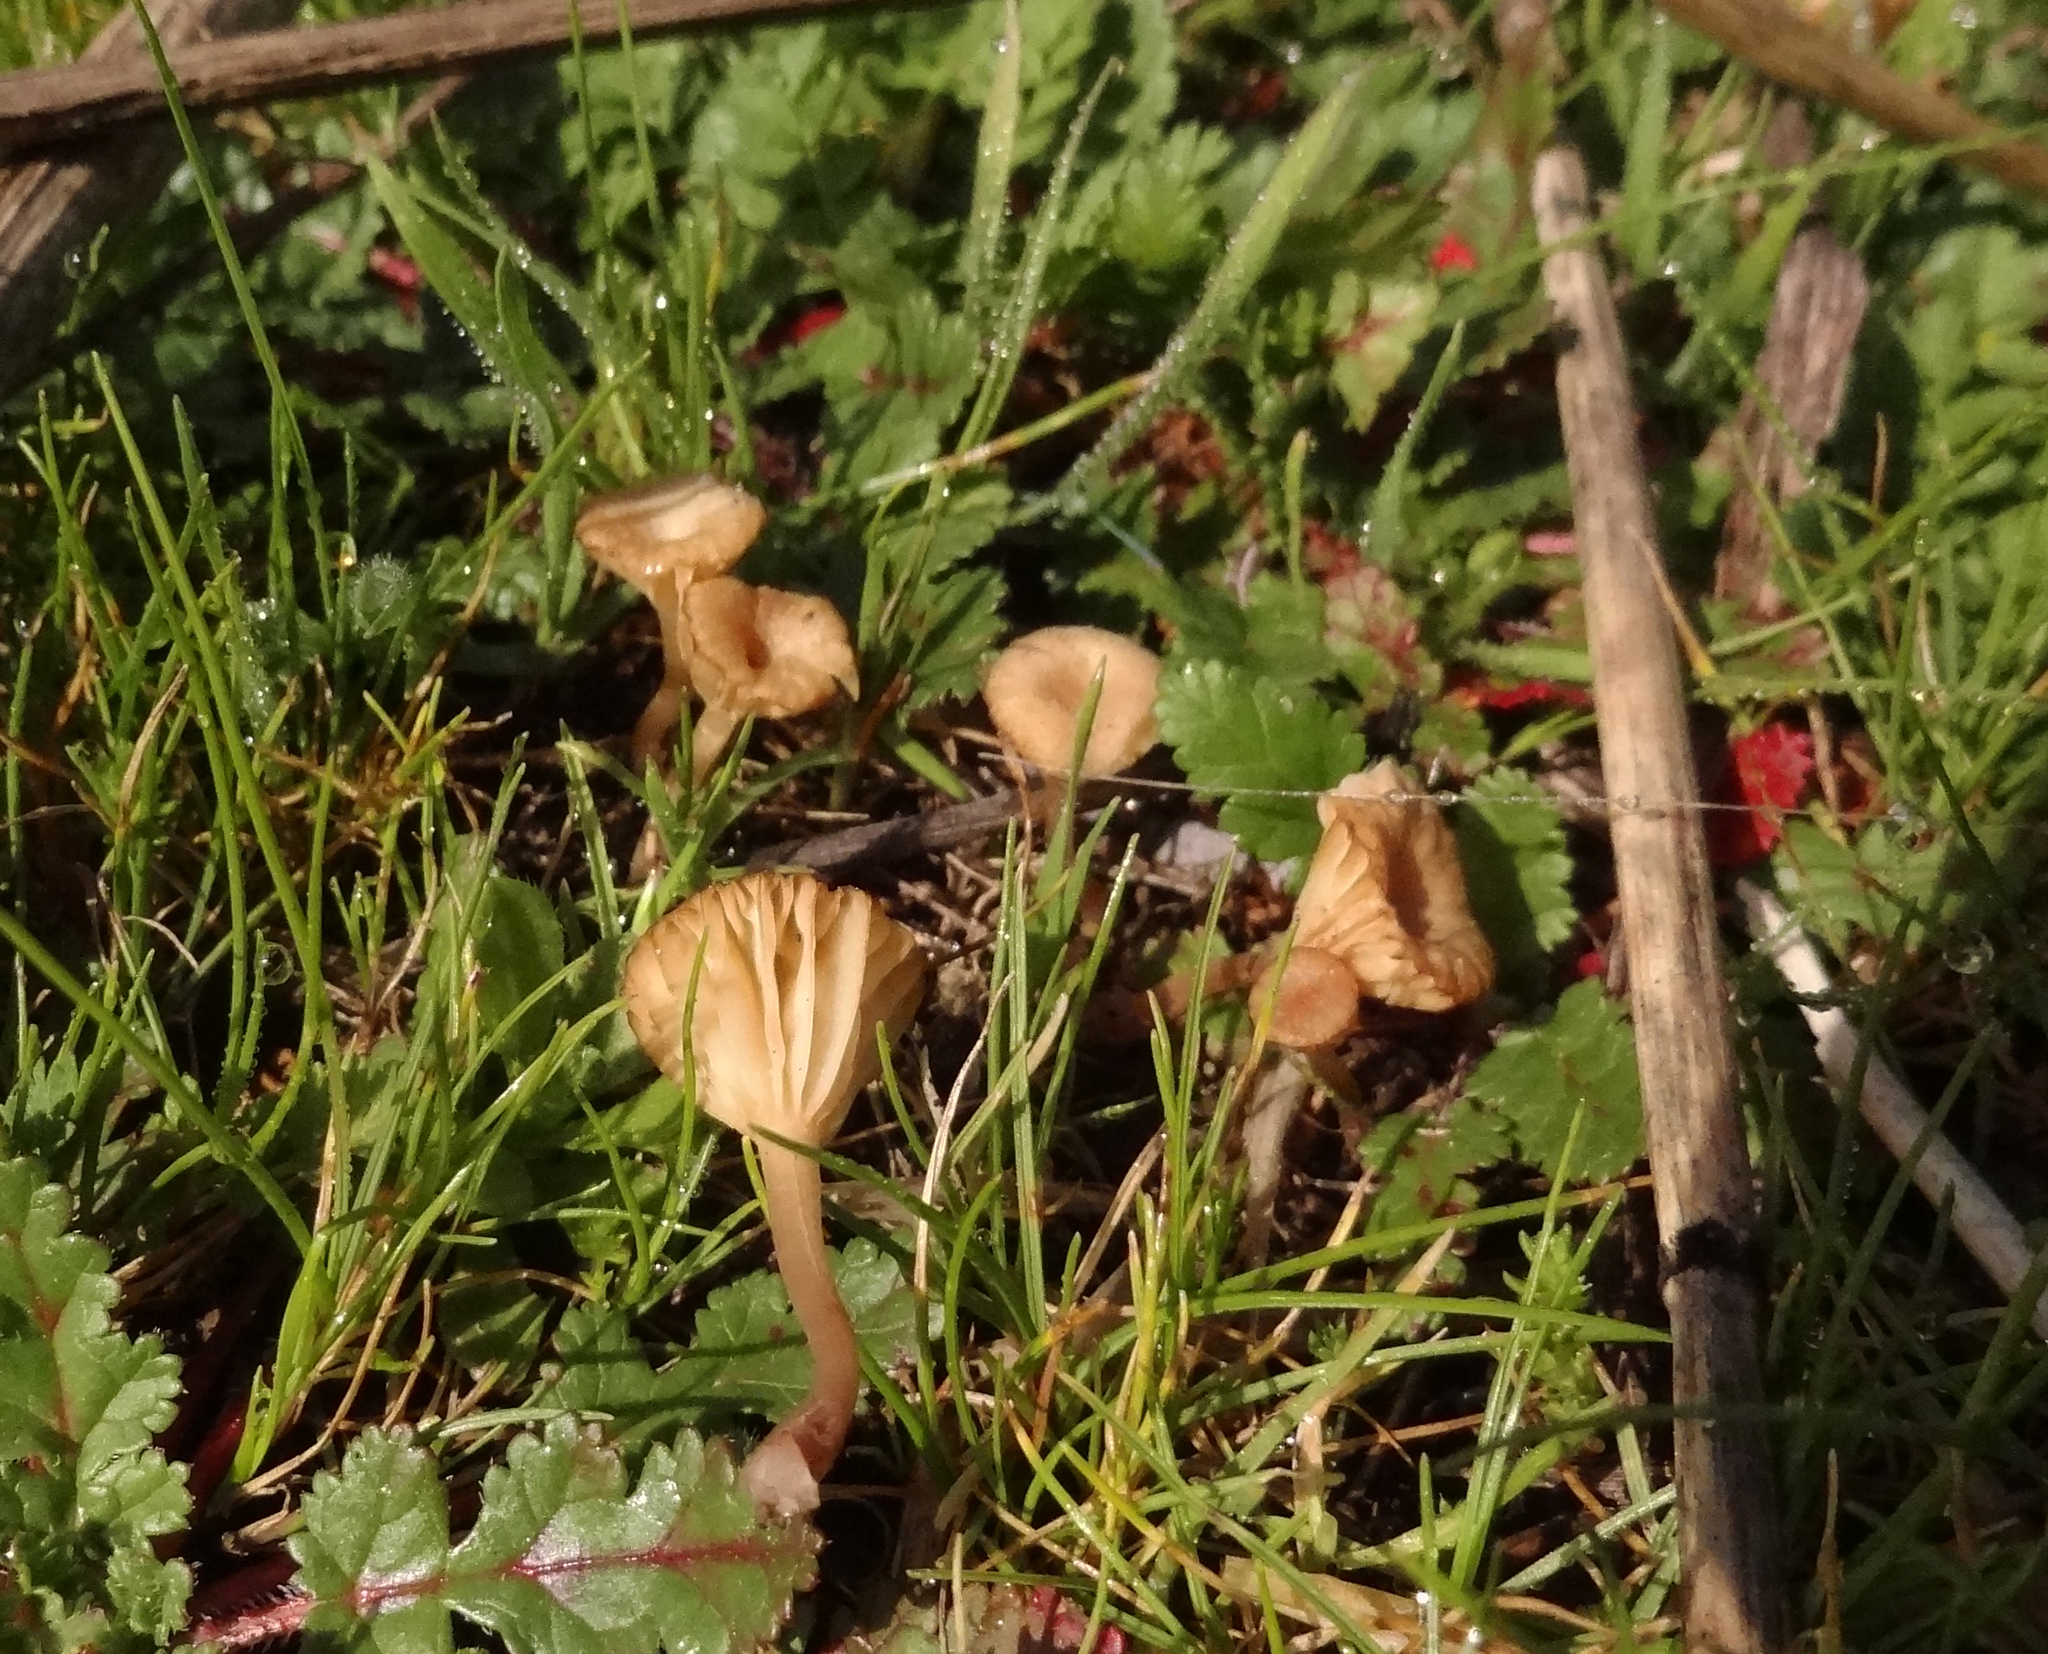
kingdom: Fungi
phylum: Basidiomycota
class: Agaricomycetes
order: Hymenochaetales
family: Rickenellaceae
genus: Contumyces
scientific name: Contumyces rosellus
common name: Rosy navel
